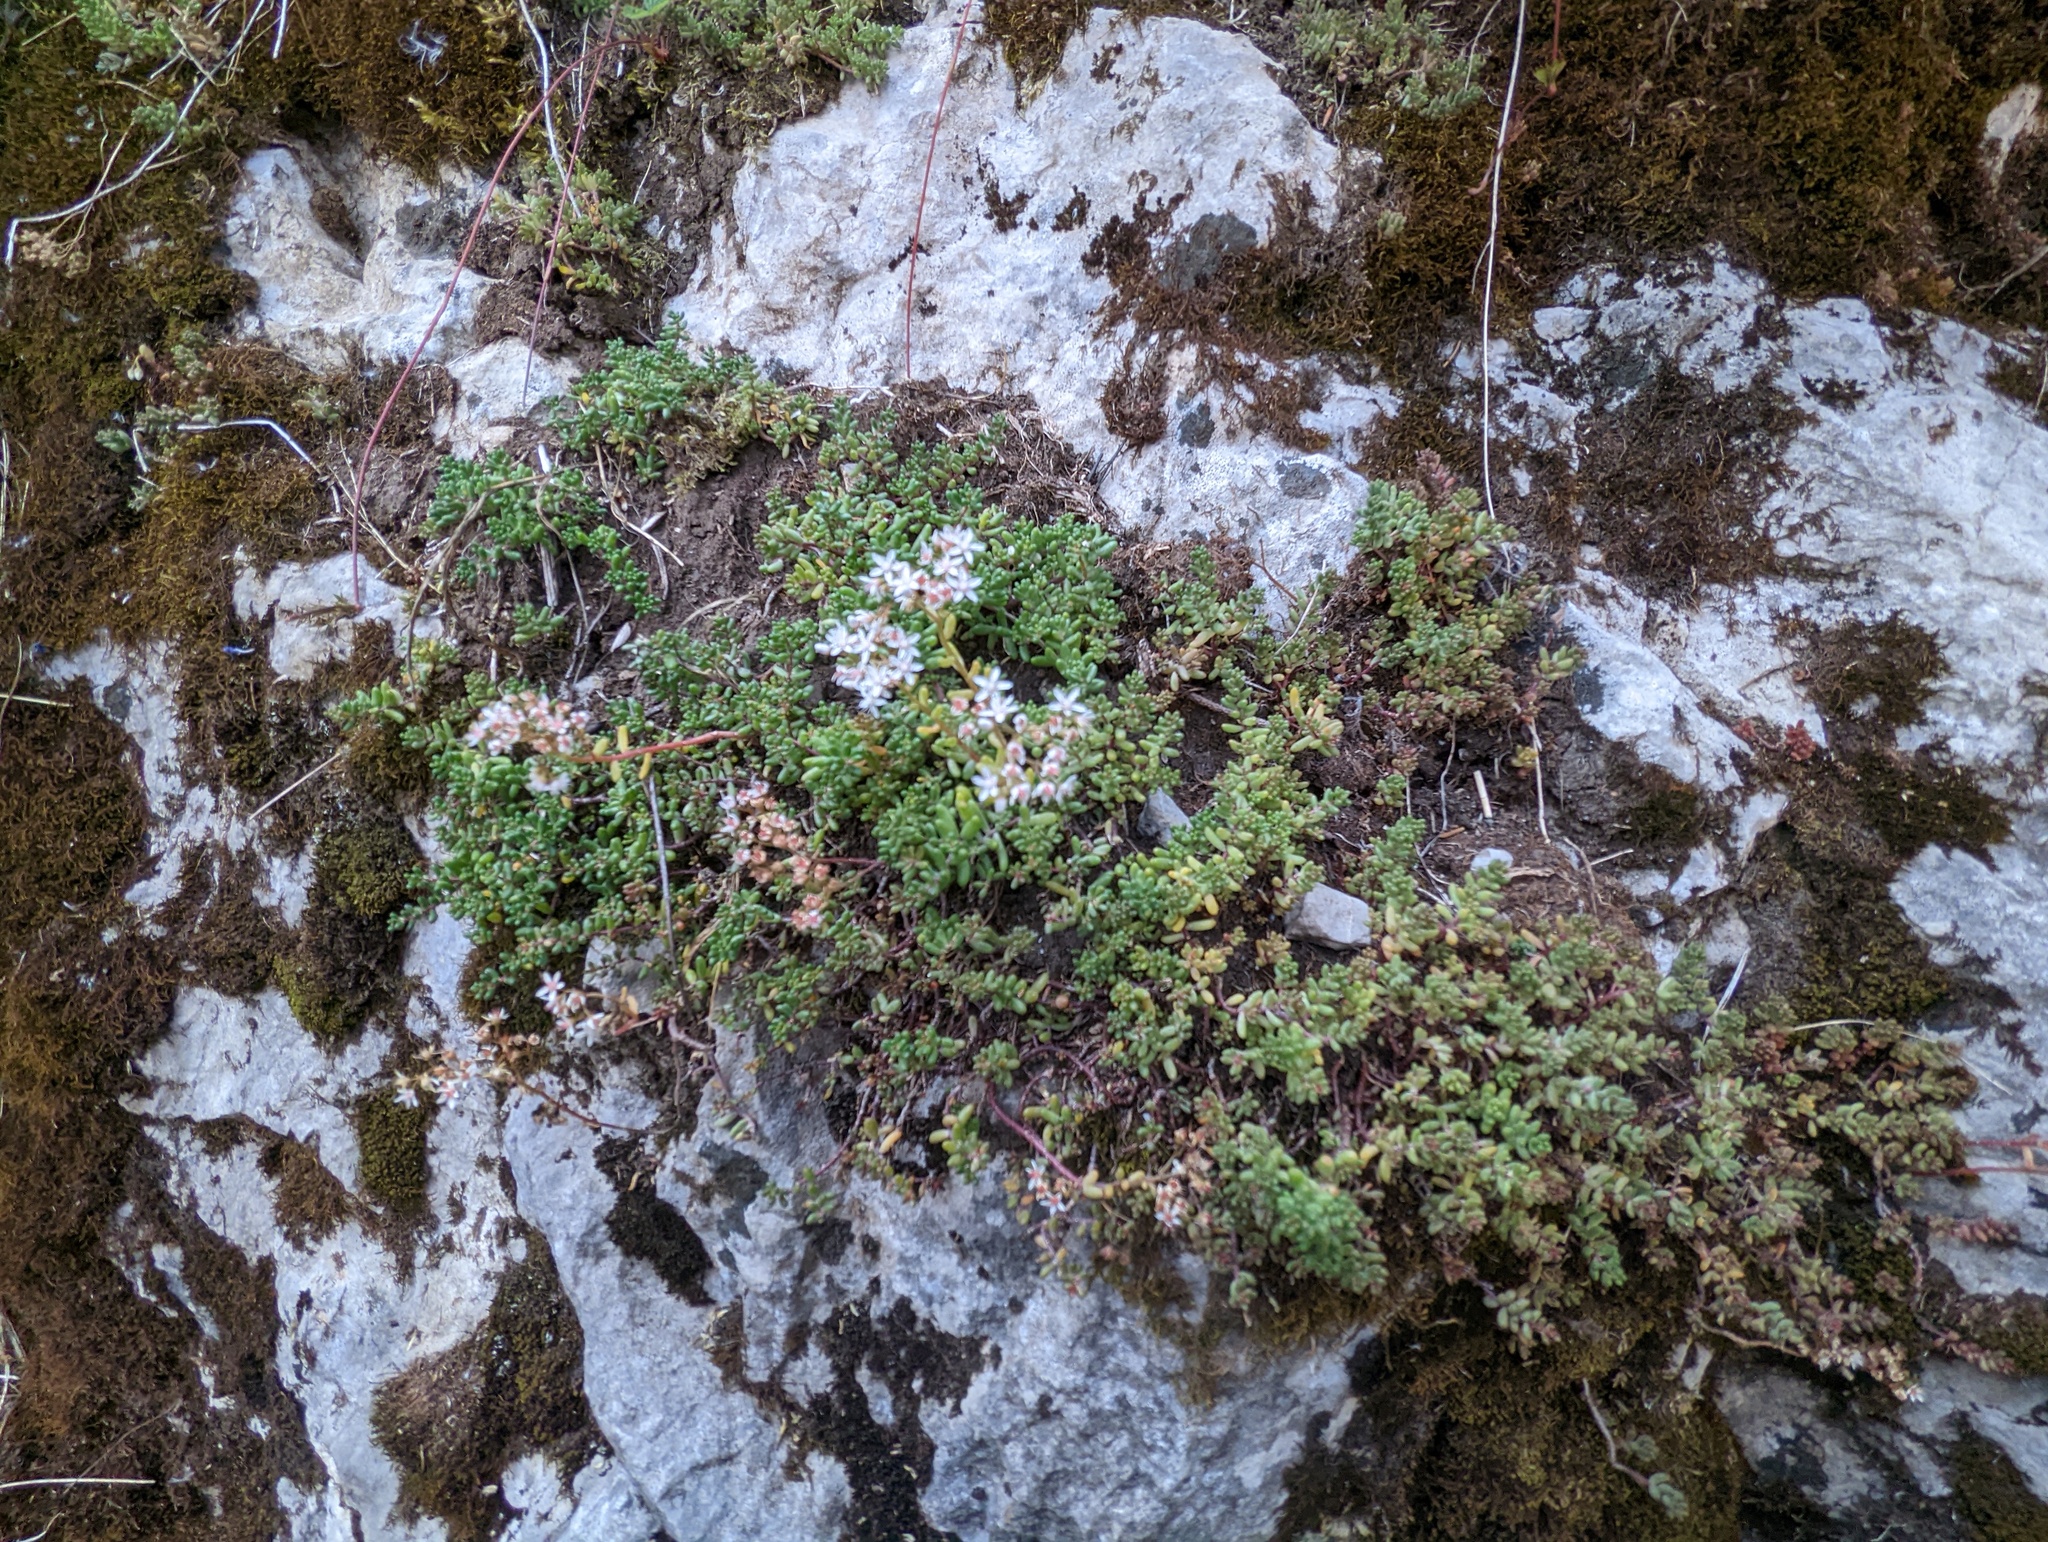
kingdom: Plantae
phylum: Tracheophyta
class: Magnoliopsida
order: Saxifragales
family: Crassulaceae
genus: Sedum
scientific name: Sedum album
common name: White stonecrop
